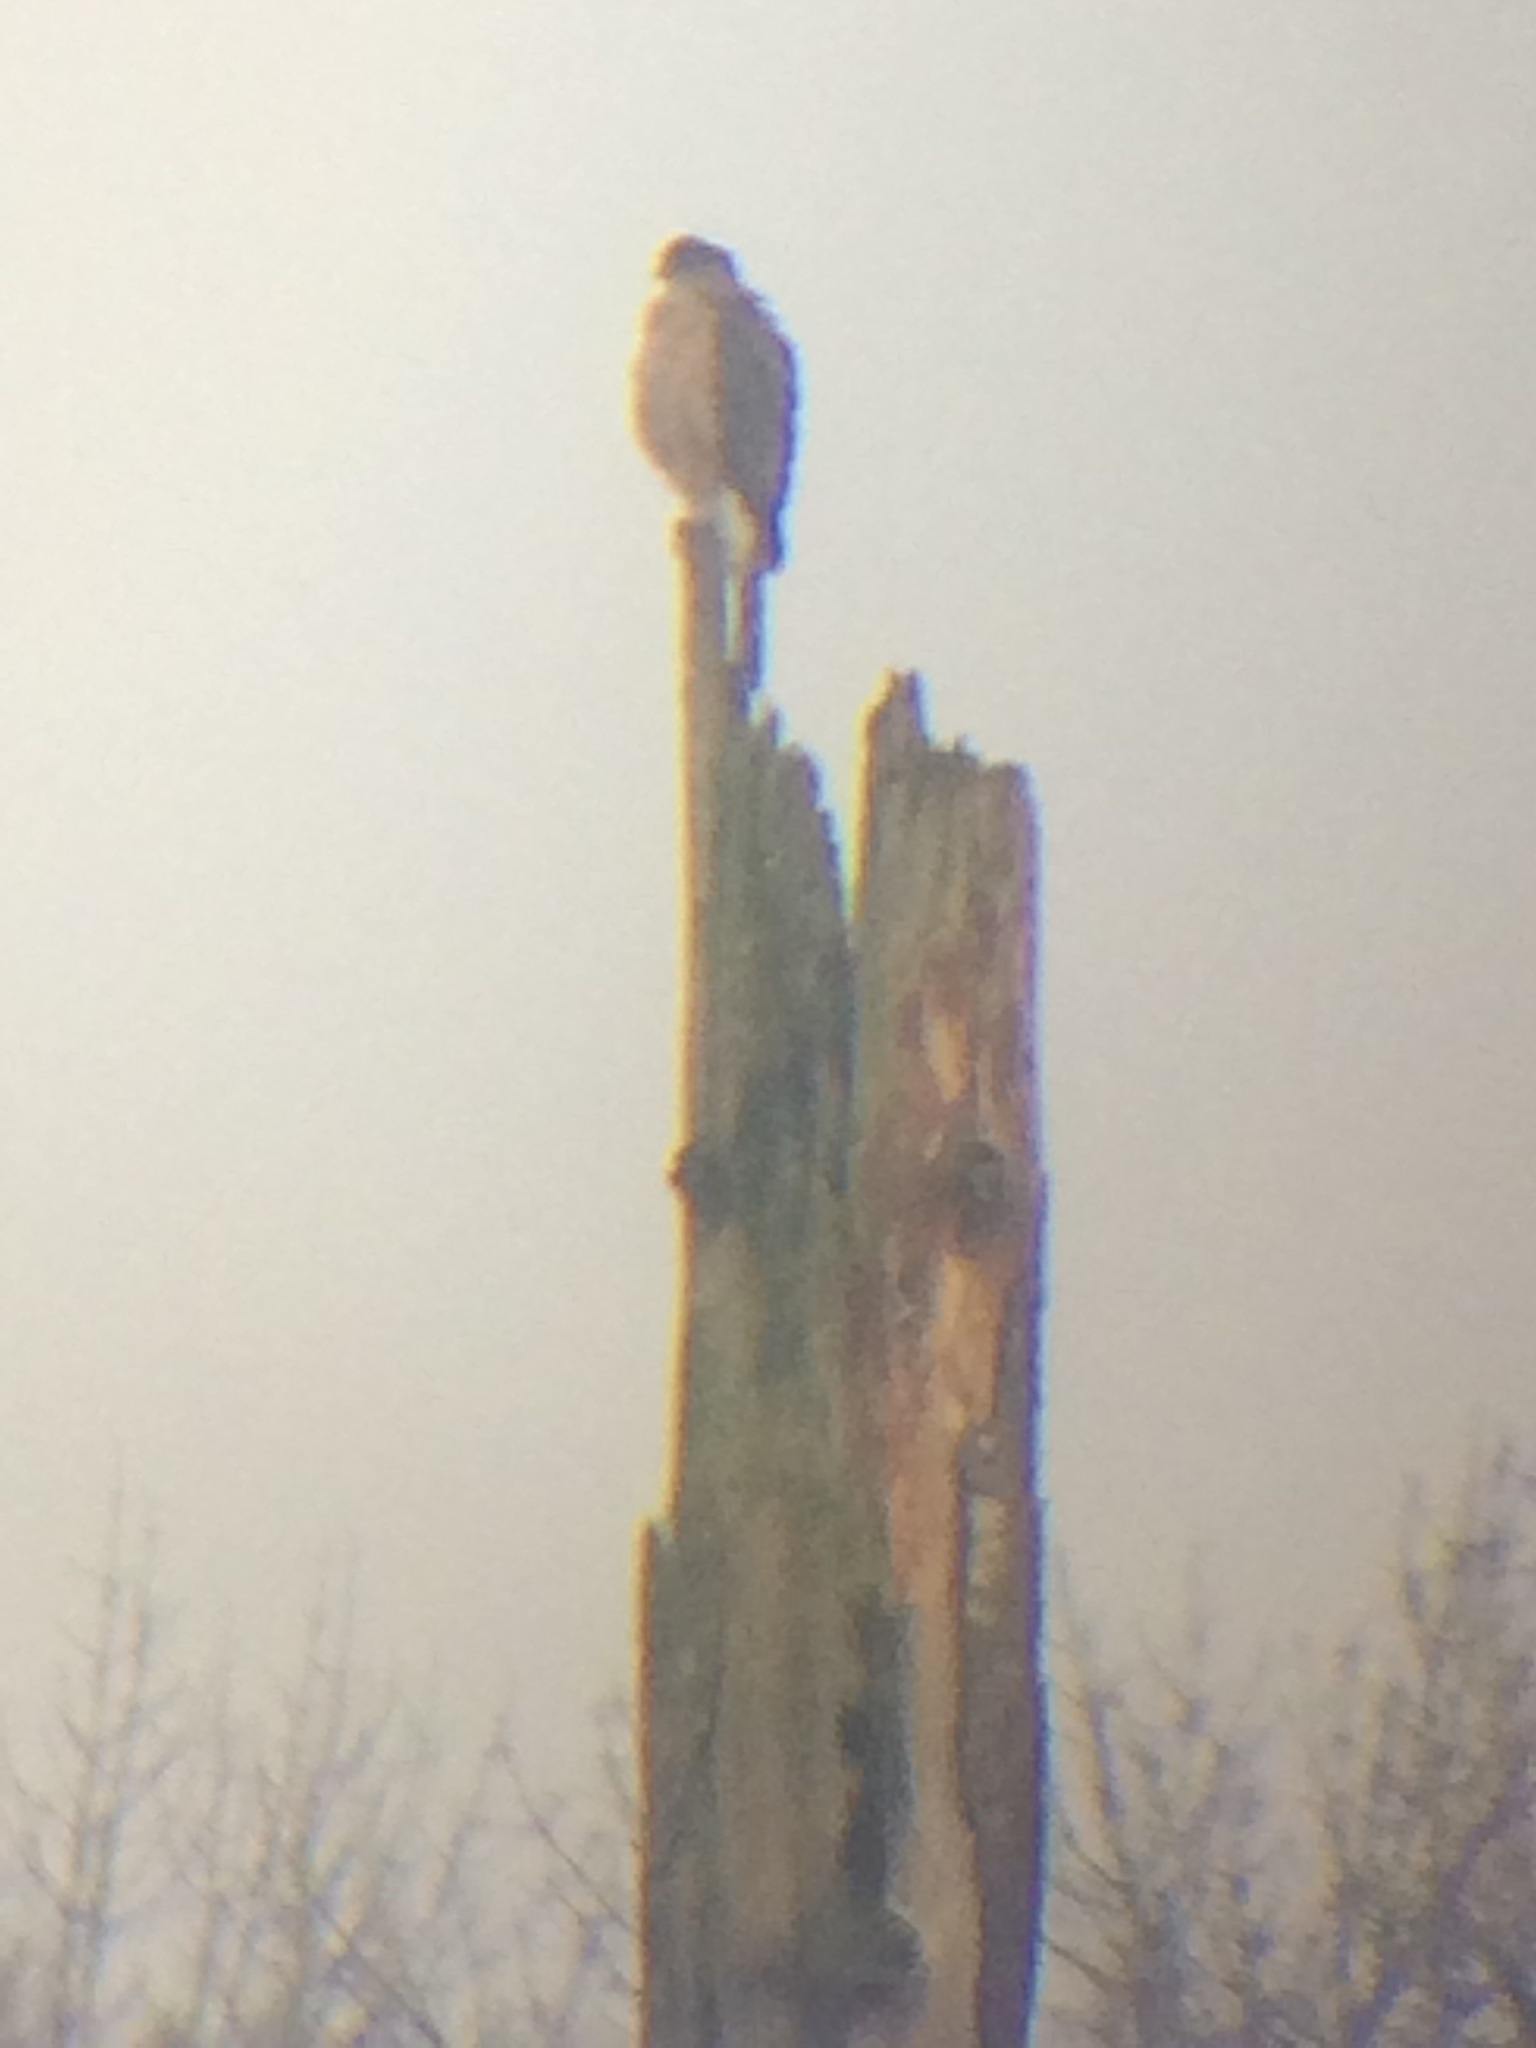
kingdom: Animalia
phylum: Chordata
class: Aves
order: Accipitriformes
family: Accipitridae
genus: Accipiter
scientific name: Accipiter cooperii
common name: Cooper's hawk
